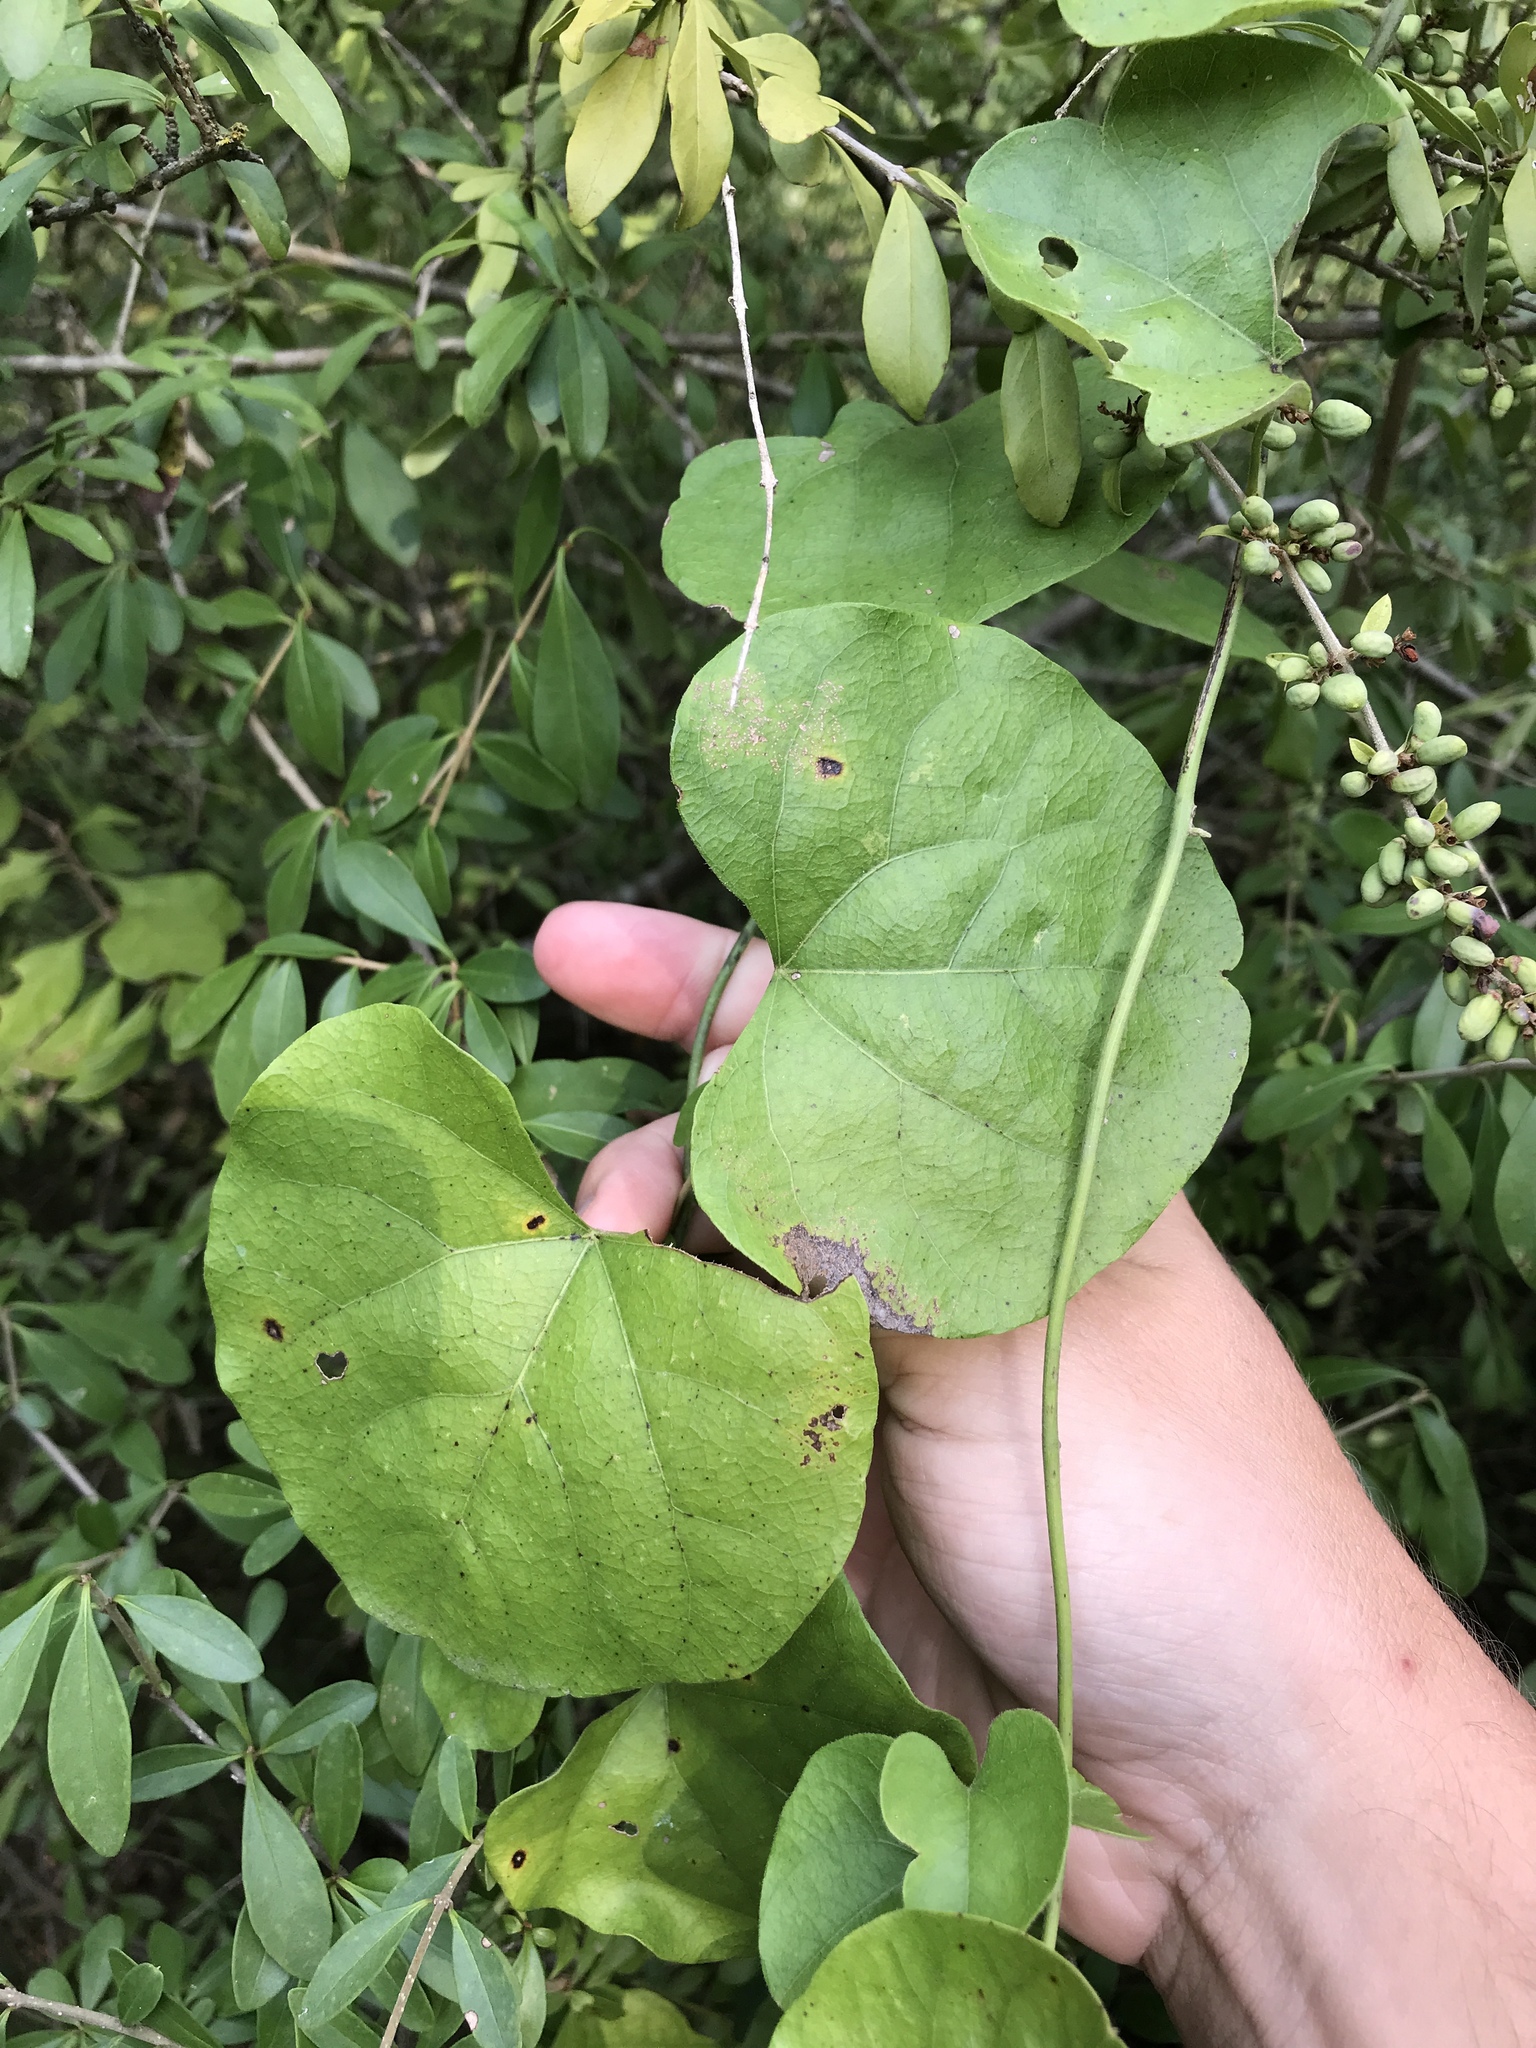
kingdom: Plantae
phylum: Tracheophyta
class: Magnoliopsida
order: Ranunculales
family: Menispermaceae
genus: Cocculus
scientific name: Cocculus carolinus
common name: Carolina moonseed
